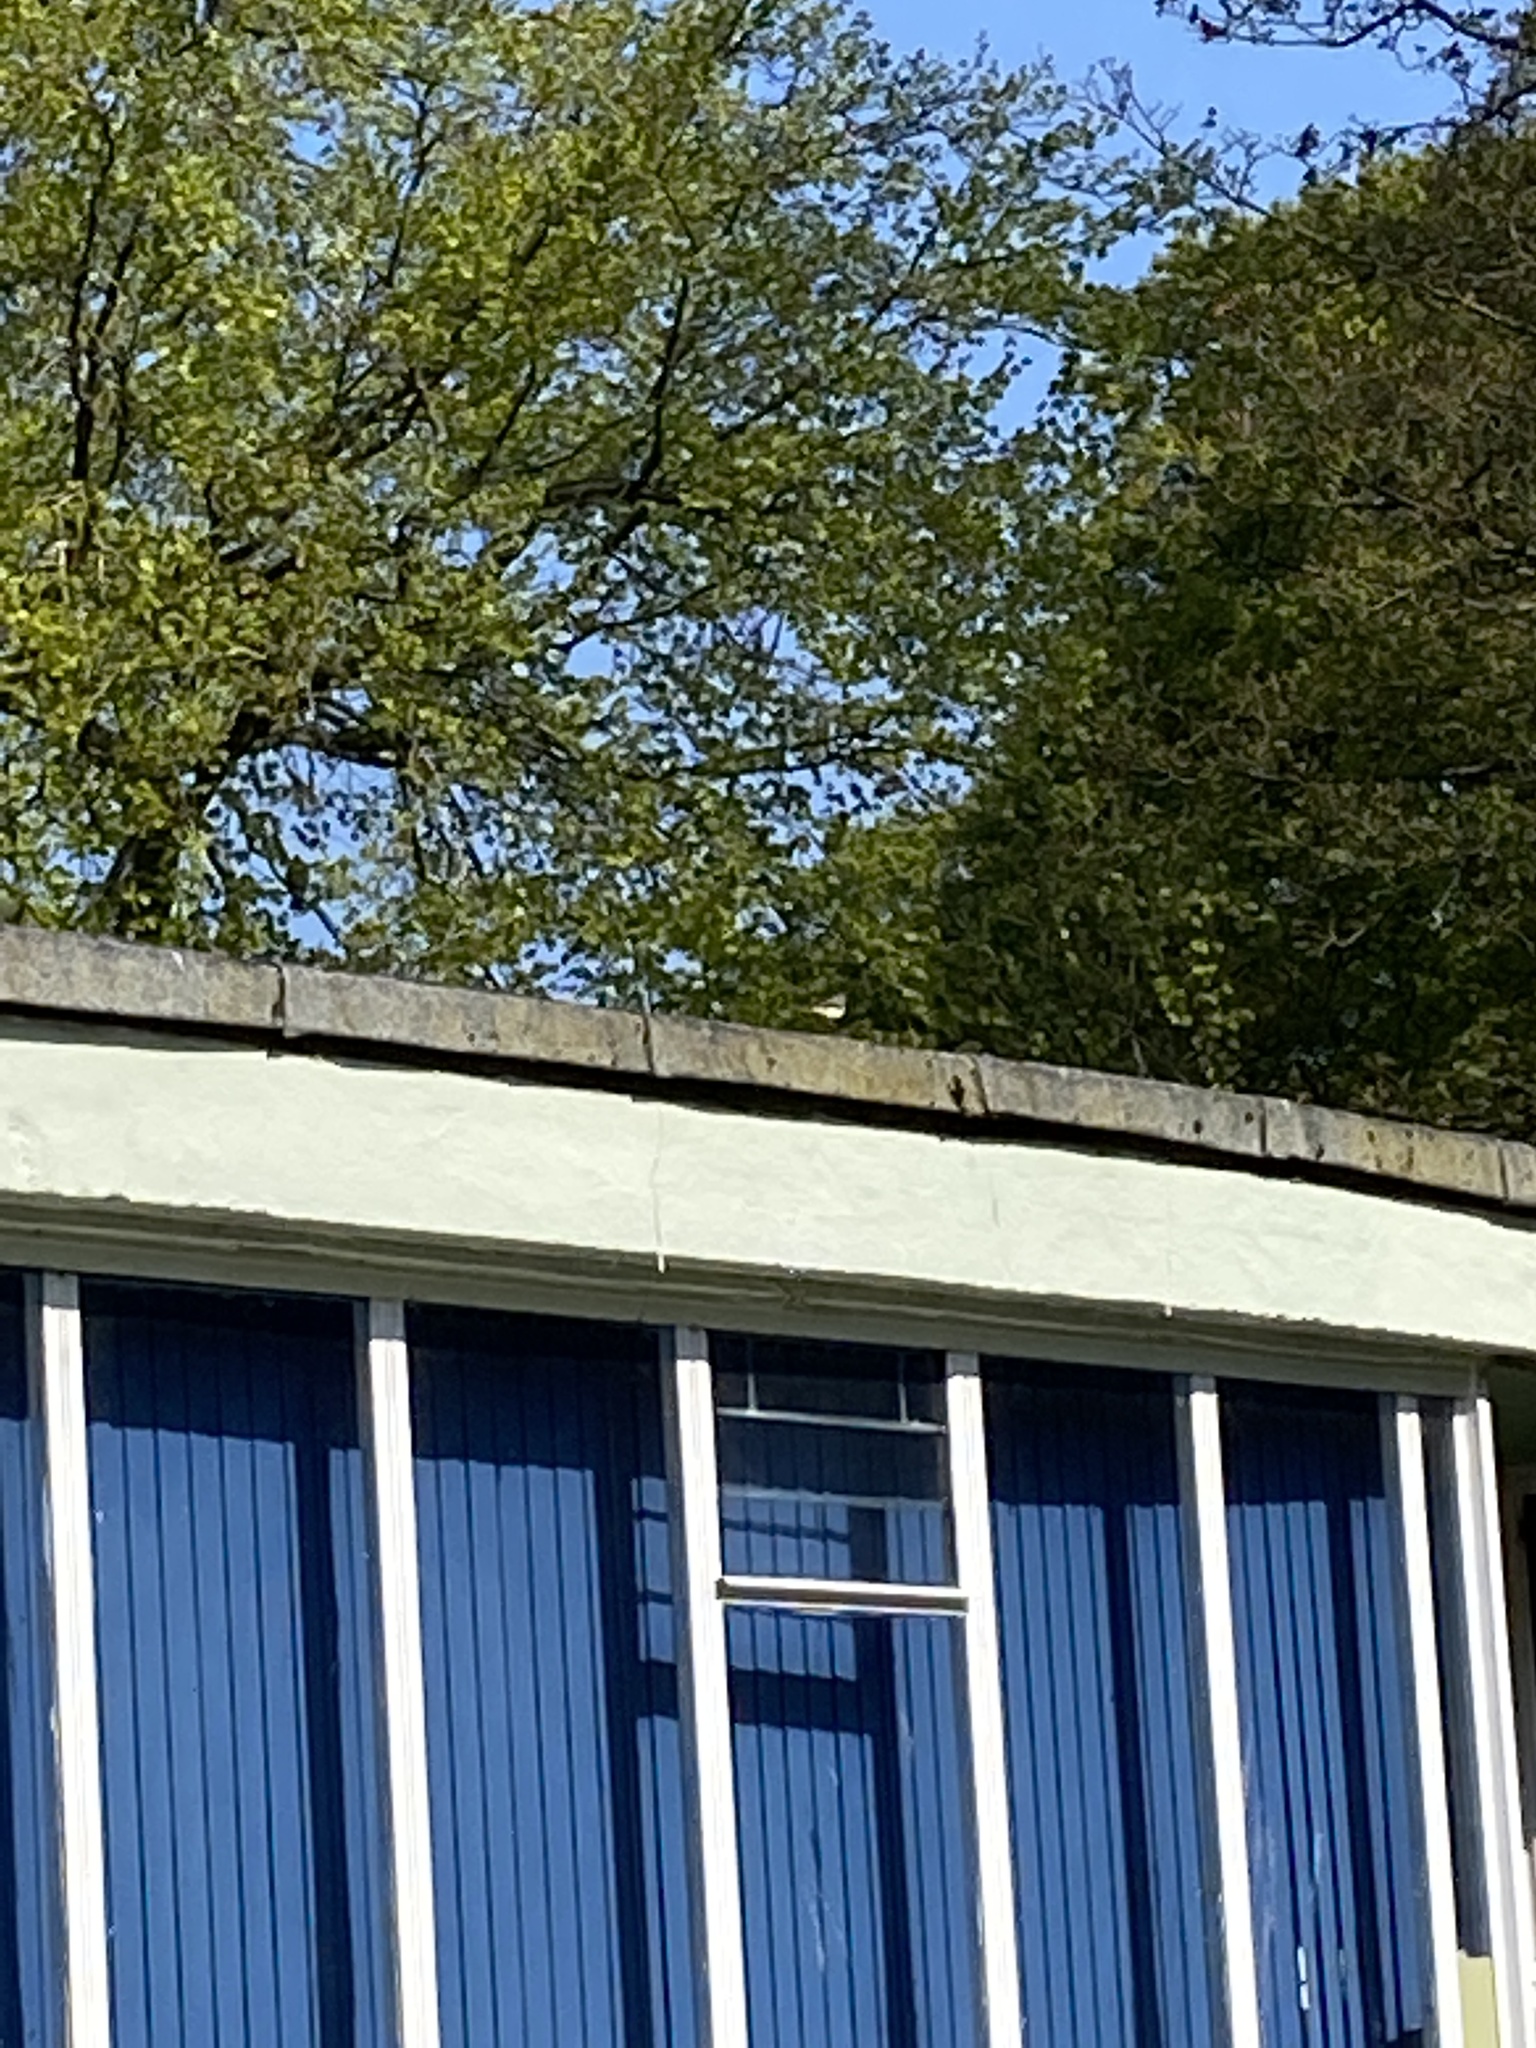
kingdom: Animalia
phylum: Chordata
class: Aves
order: Passeriformes
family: Motacillidae
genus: Motacilla
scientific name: Motacilla cinerea
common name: Grey wagtail
